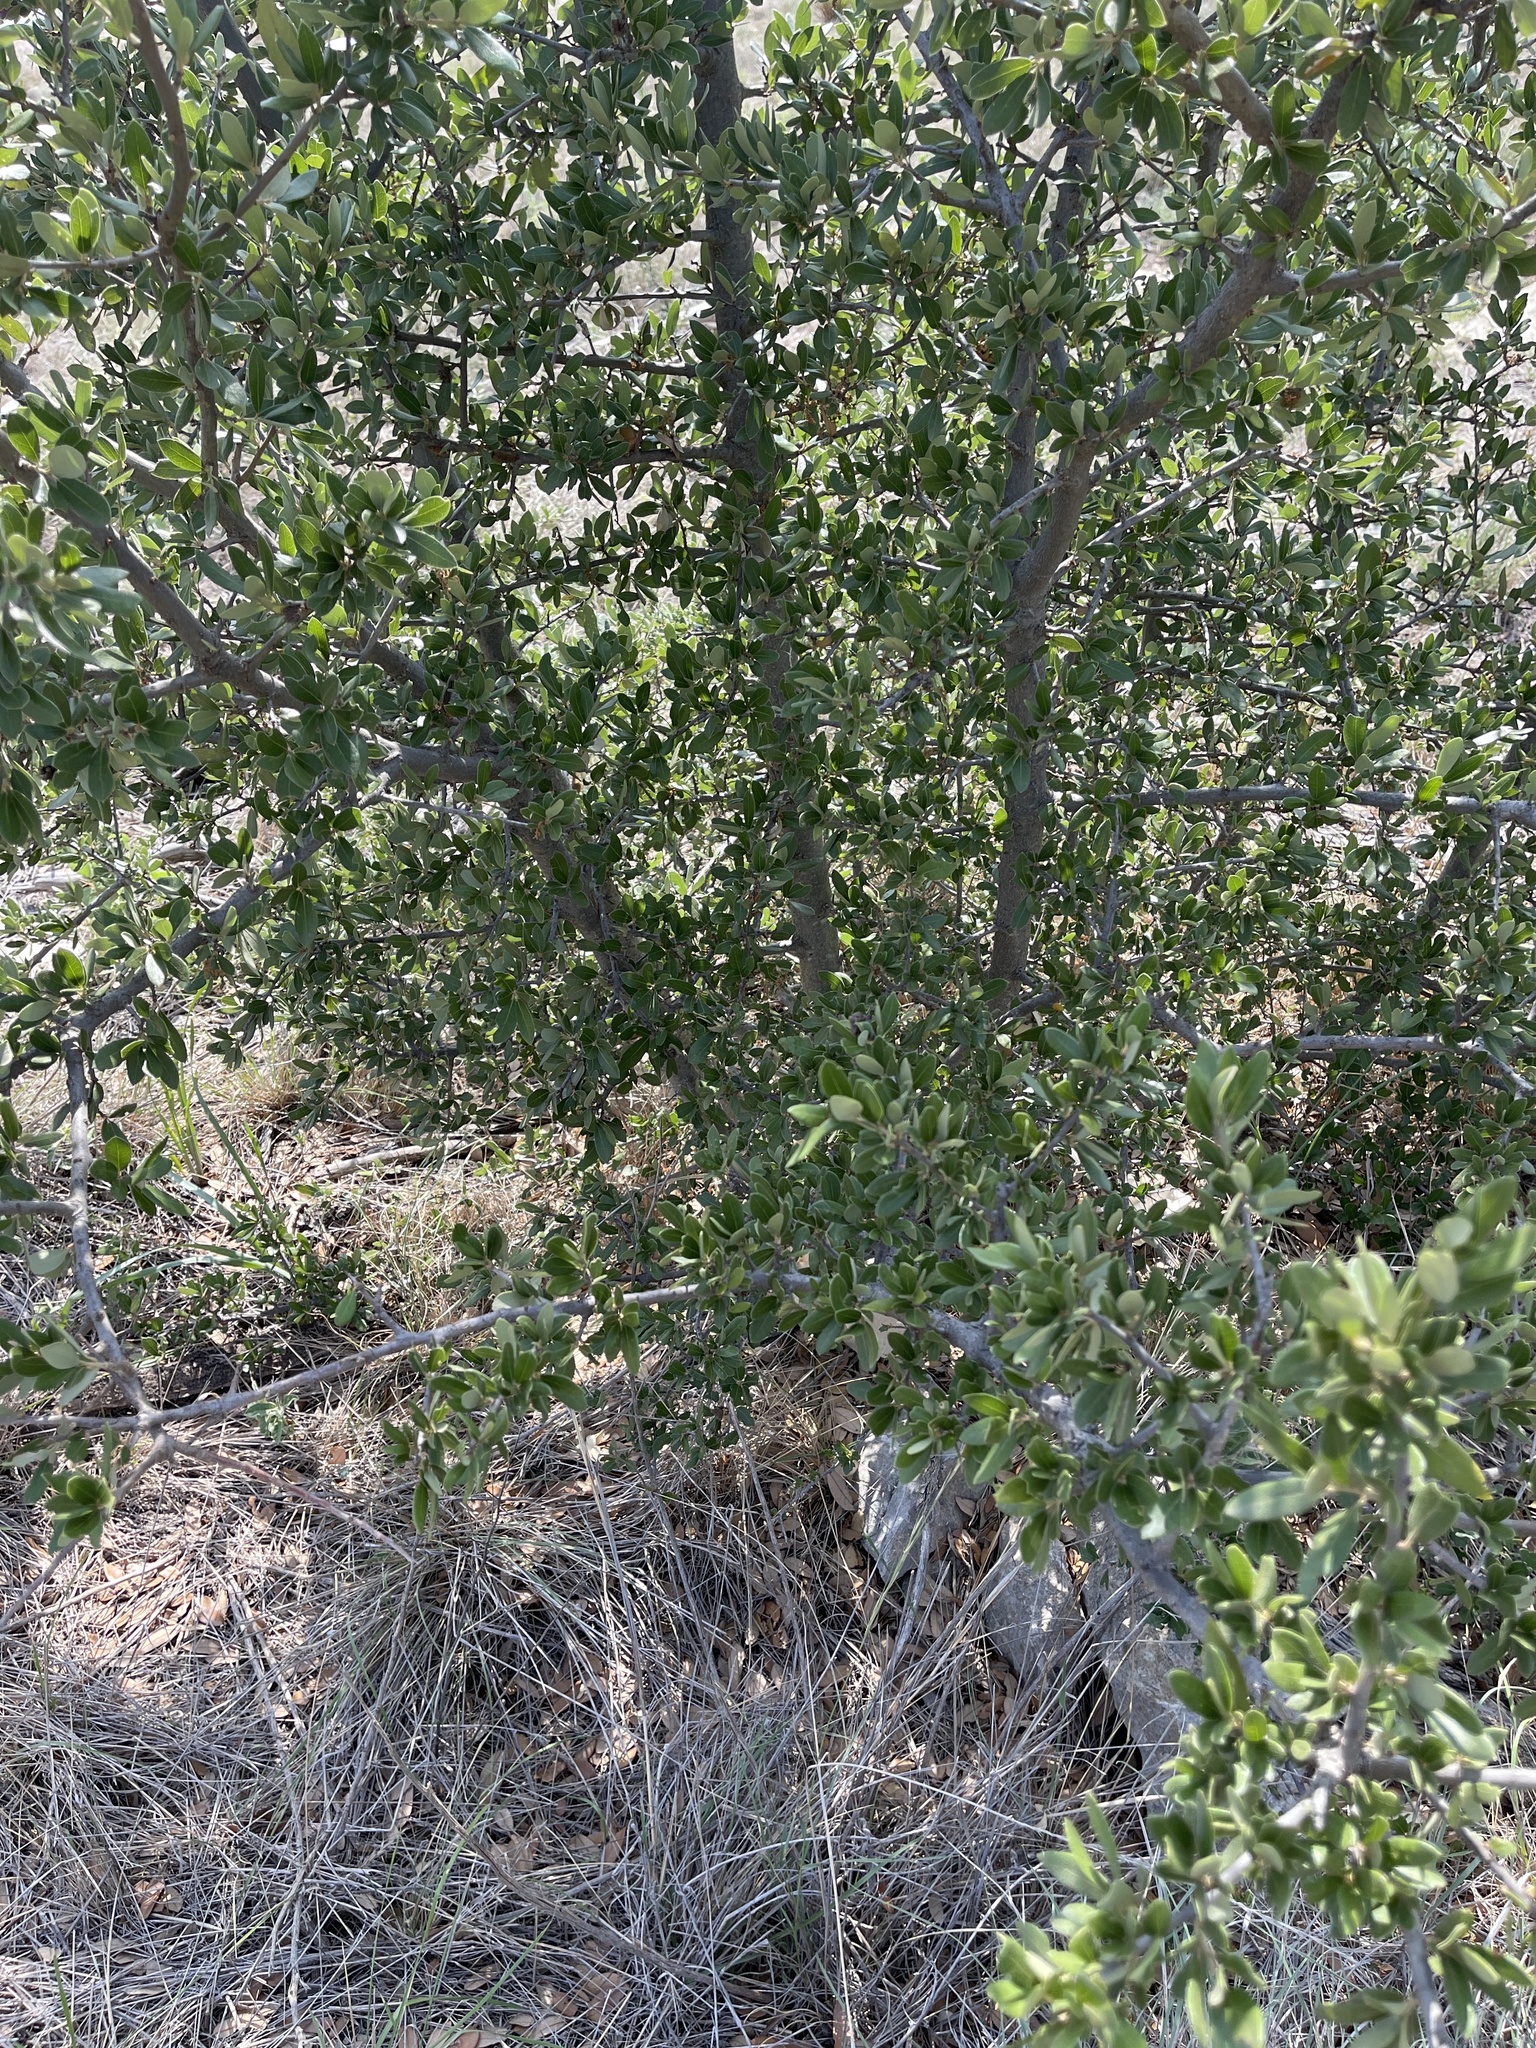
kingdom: Plantae
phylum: Tracheophyta
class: Magnoliopsida
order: Fagales
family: Fagaceae
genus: Quercus
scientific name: Quercus fusiformis
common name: Texas live oak
